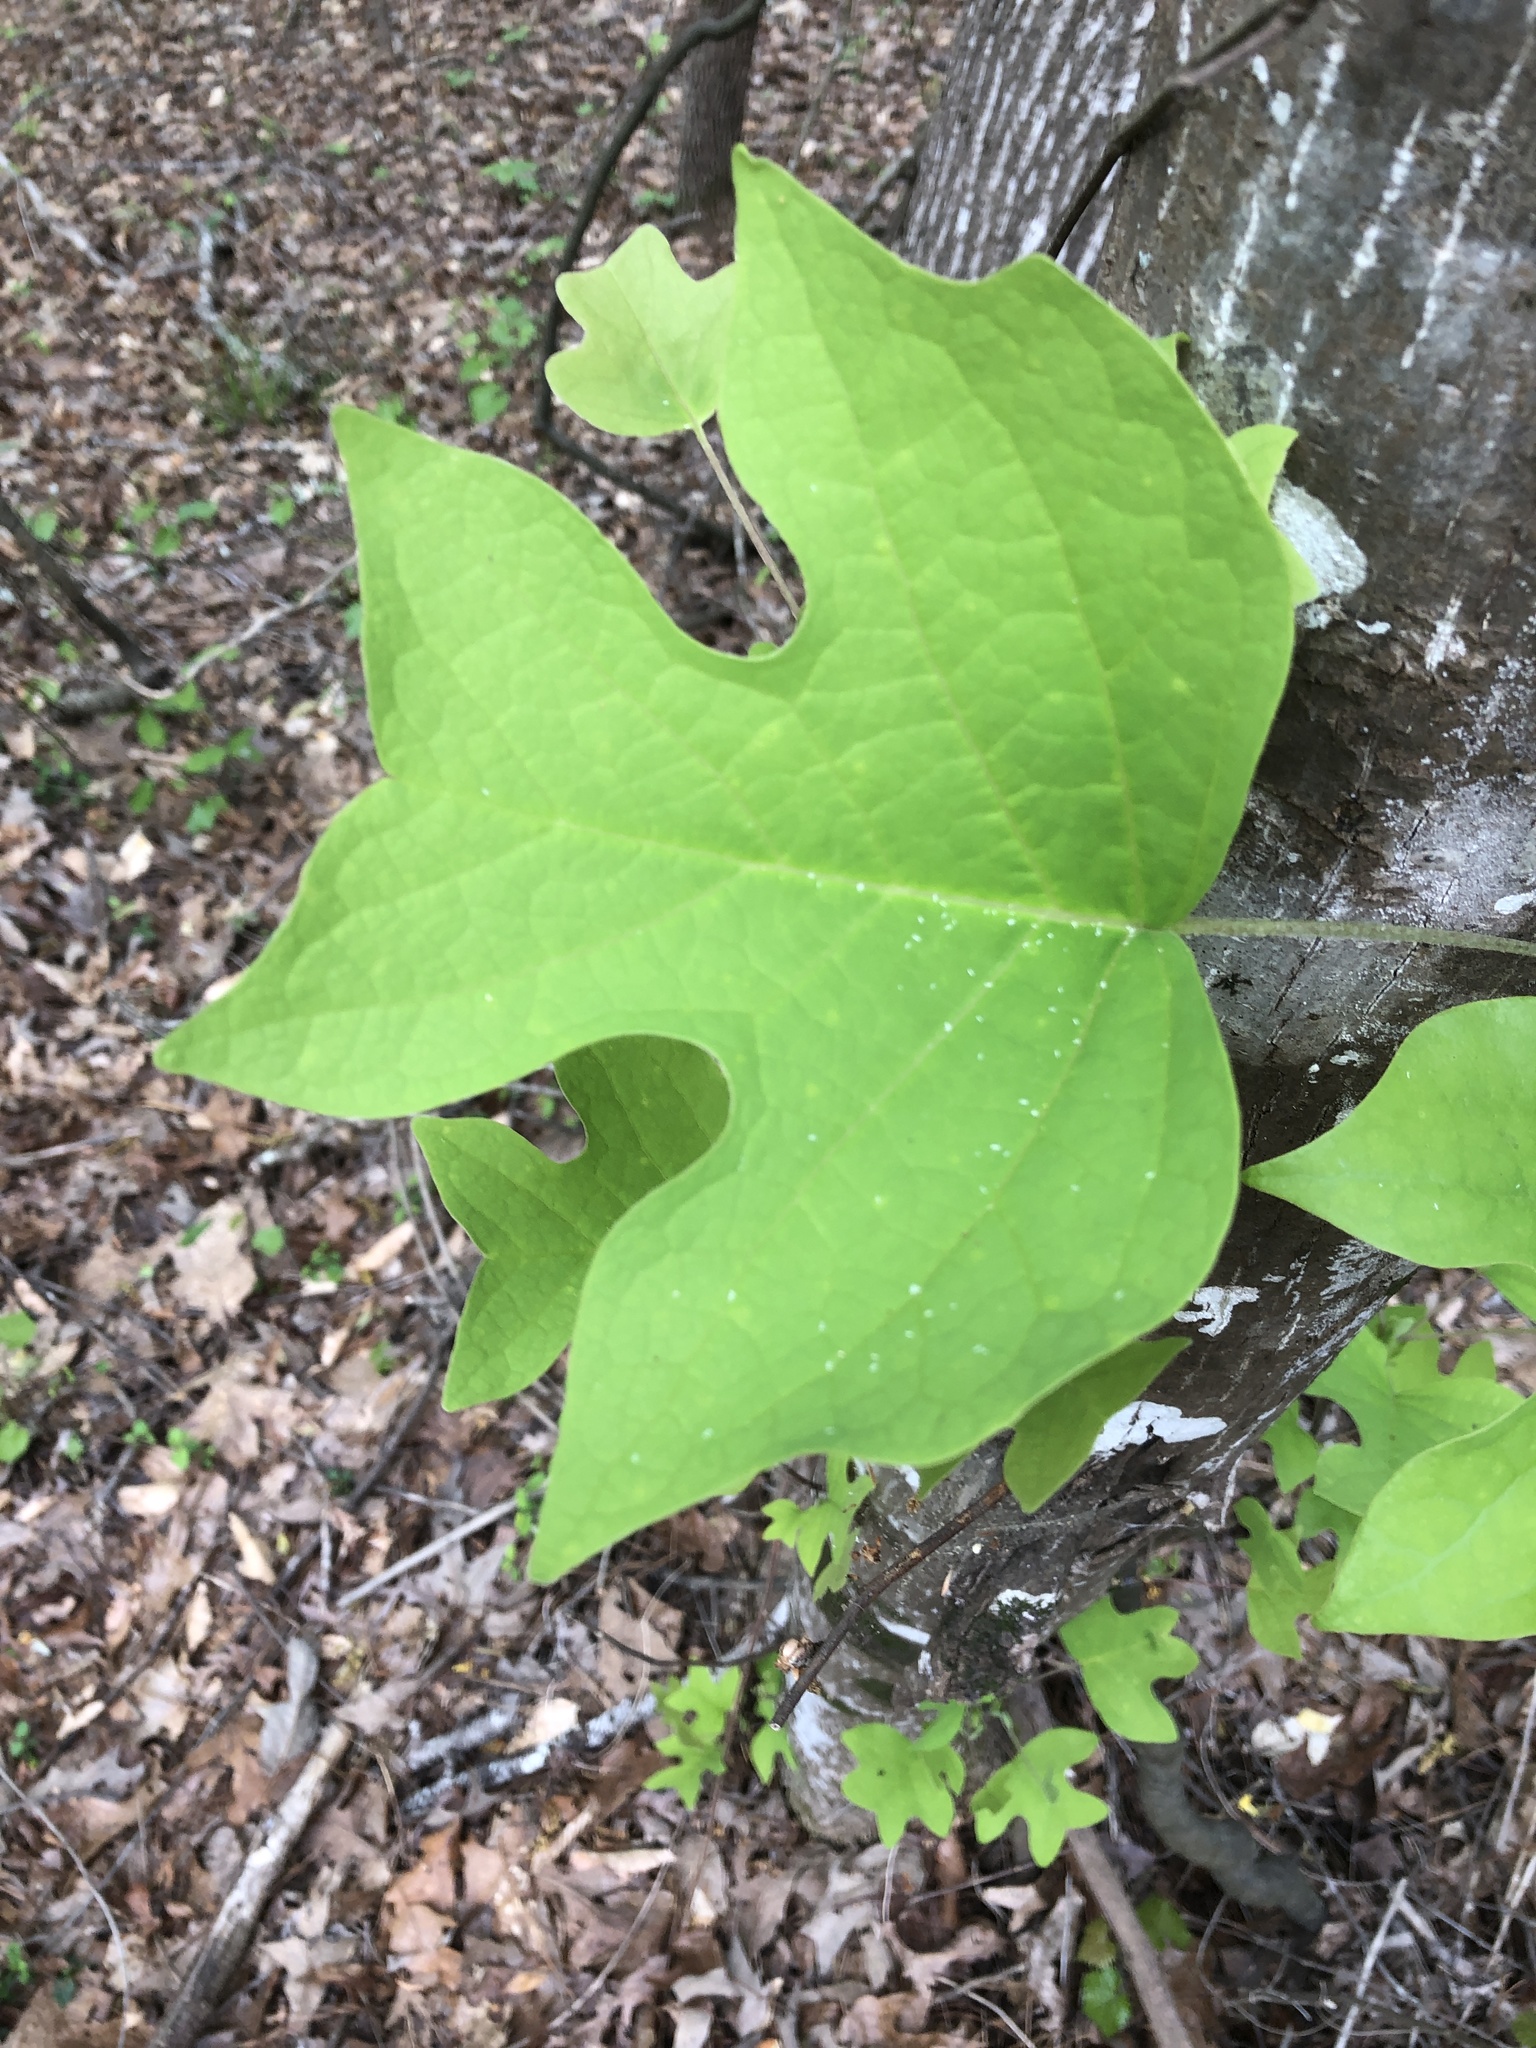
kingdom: Plantae
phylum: Tracheophyta
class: Magnoliopsida
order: Magnoliales
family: Magnoliaceae
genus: Liriodendron
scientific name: Liriodendron tulipifera
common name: Tulip tree
